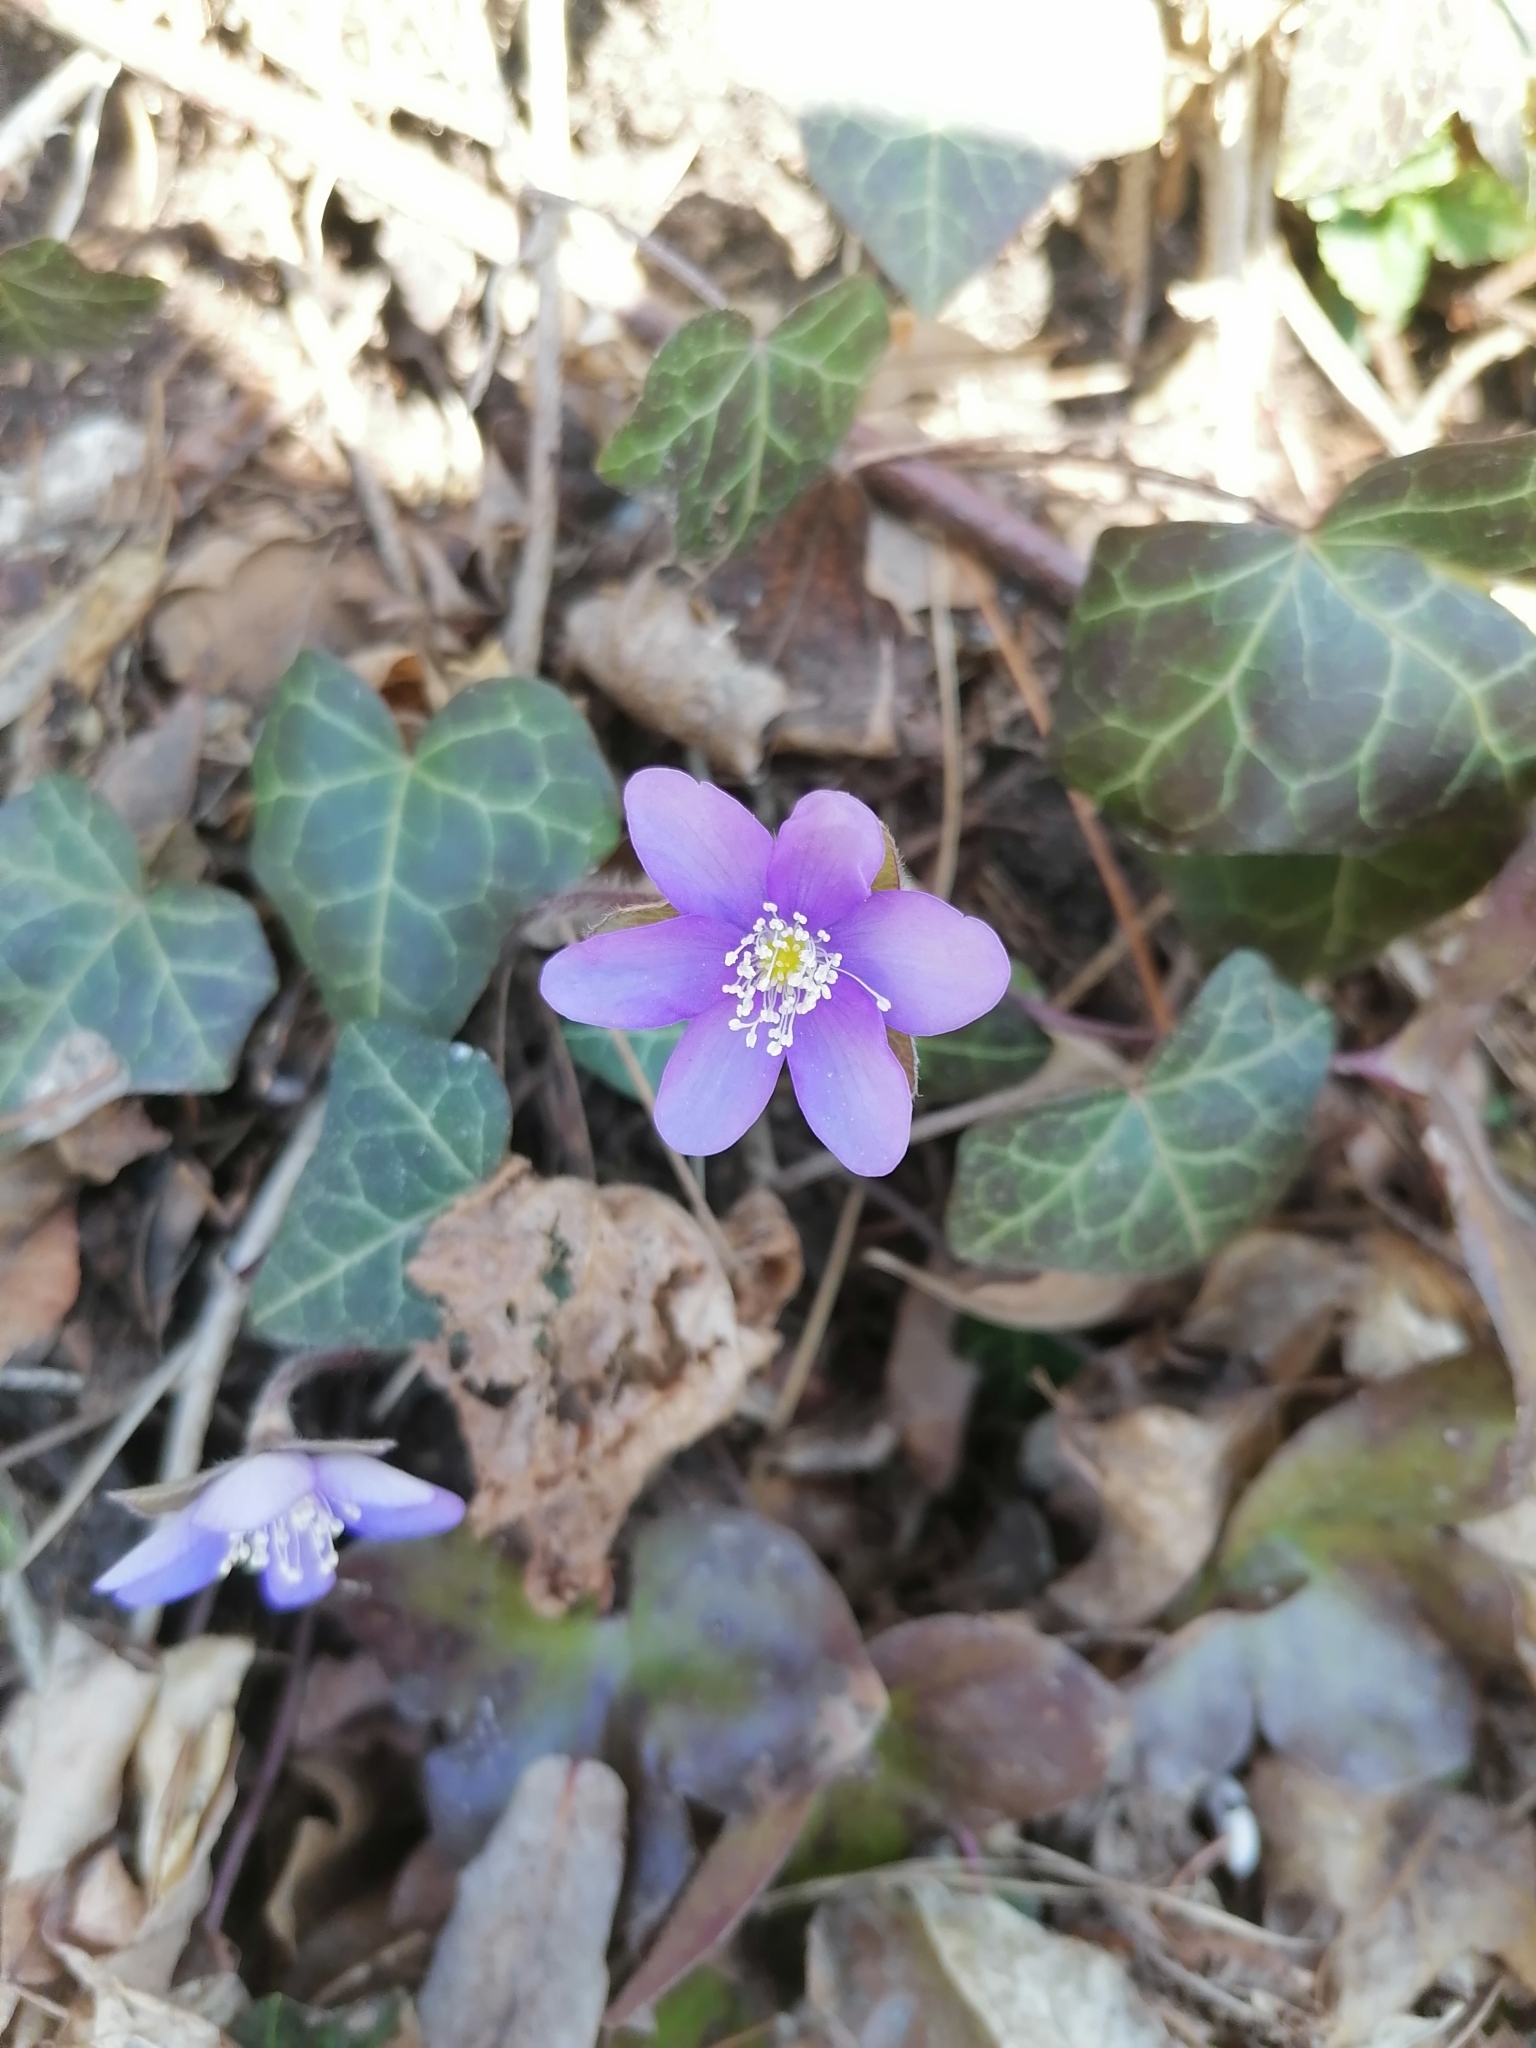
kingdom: Plantae
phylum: Tracheophyta
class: Magnoliopsida
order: Ranunculales
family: Ranunculaceae
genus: Hepatica
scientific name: Hepatica nobilis
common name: Liverleaf
